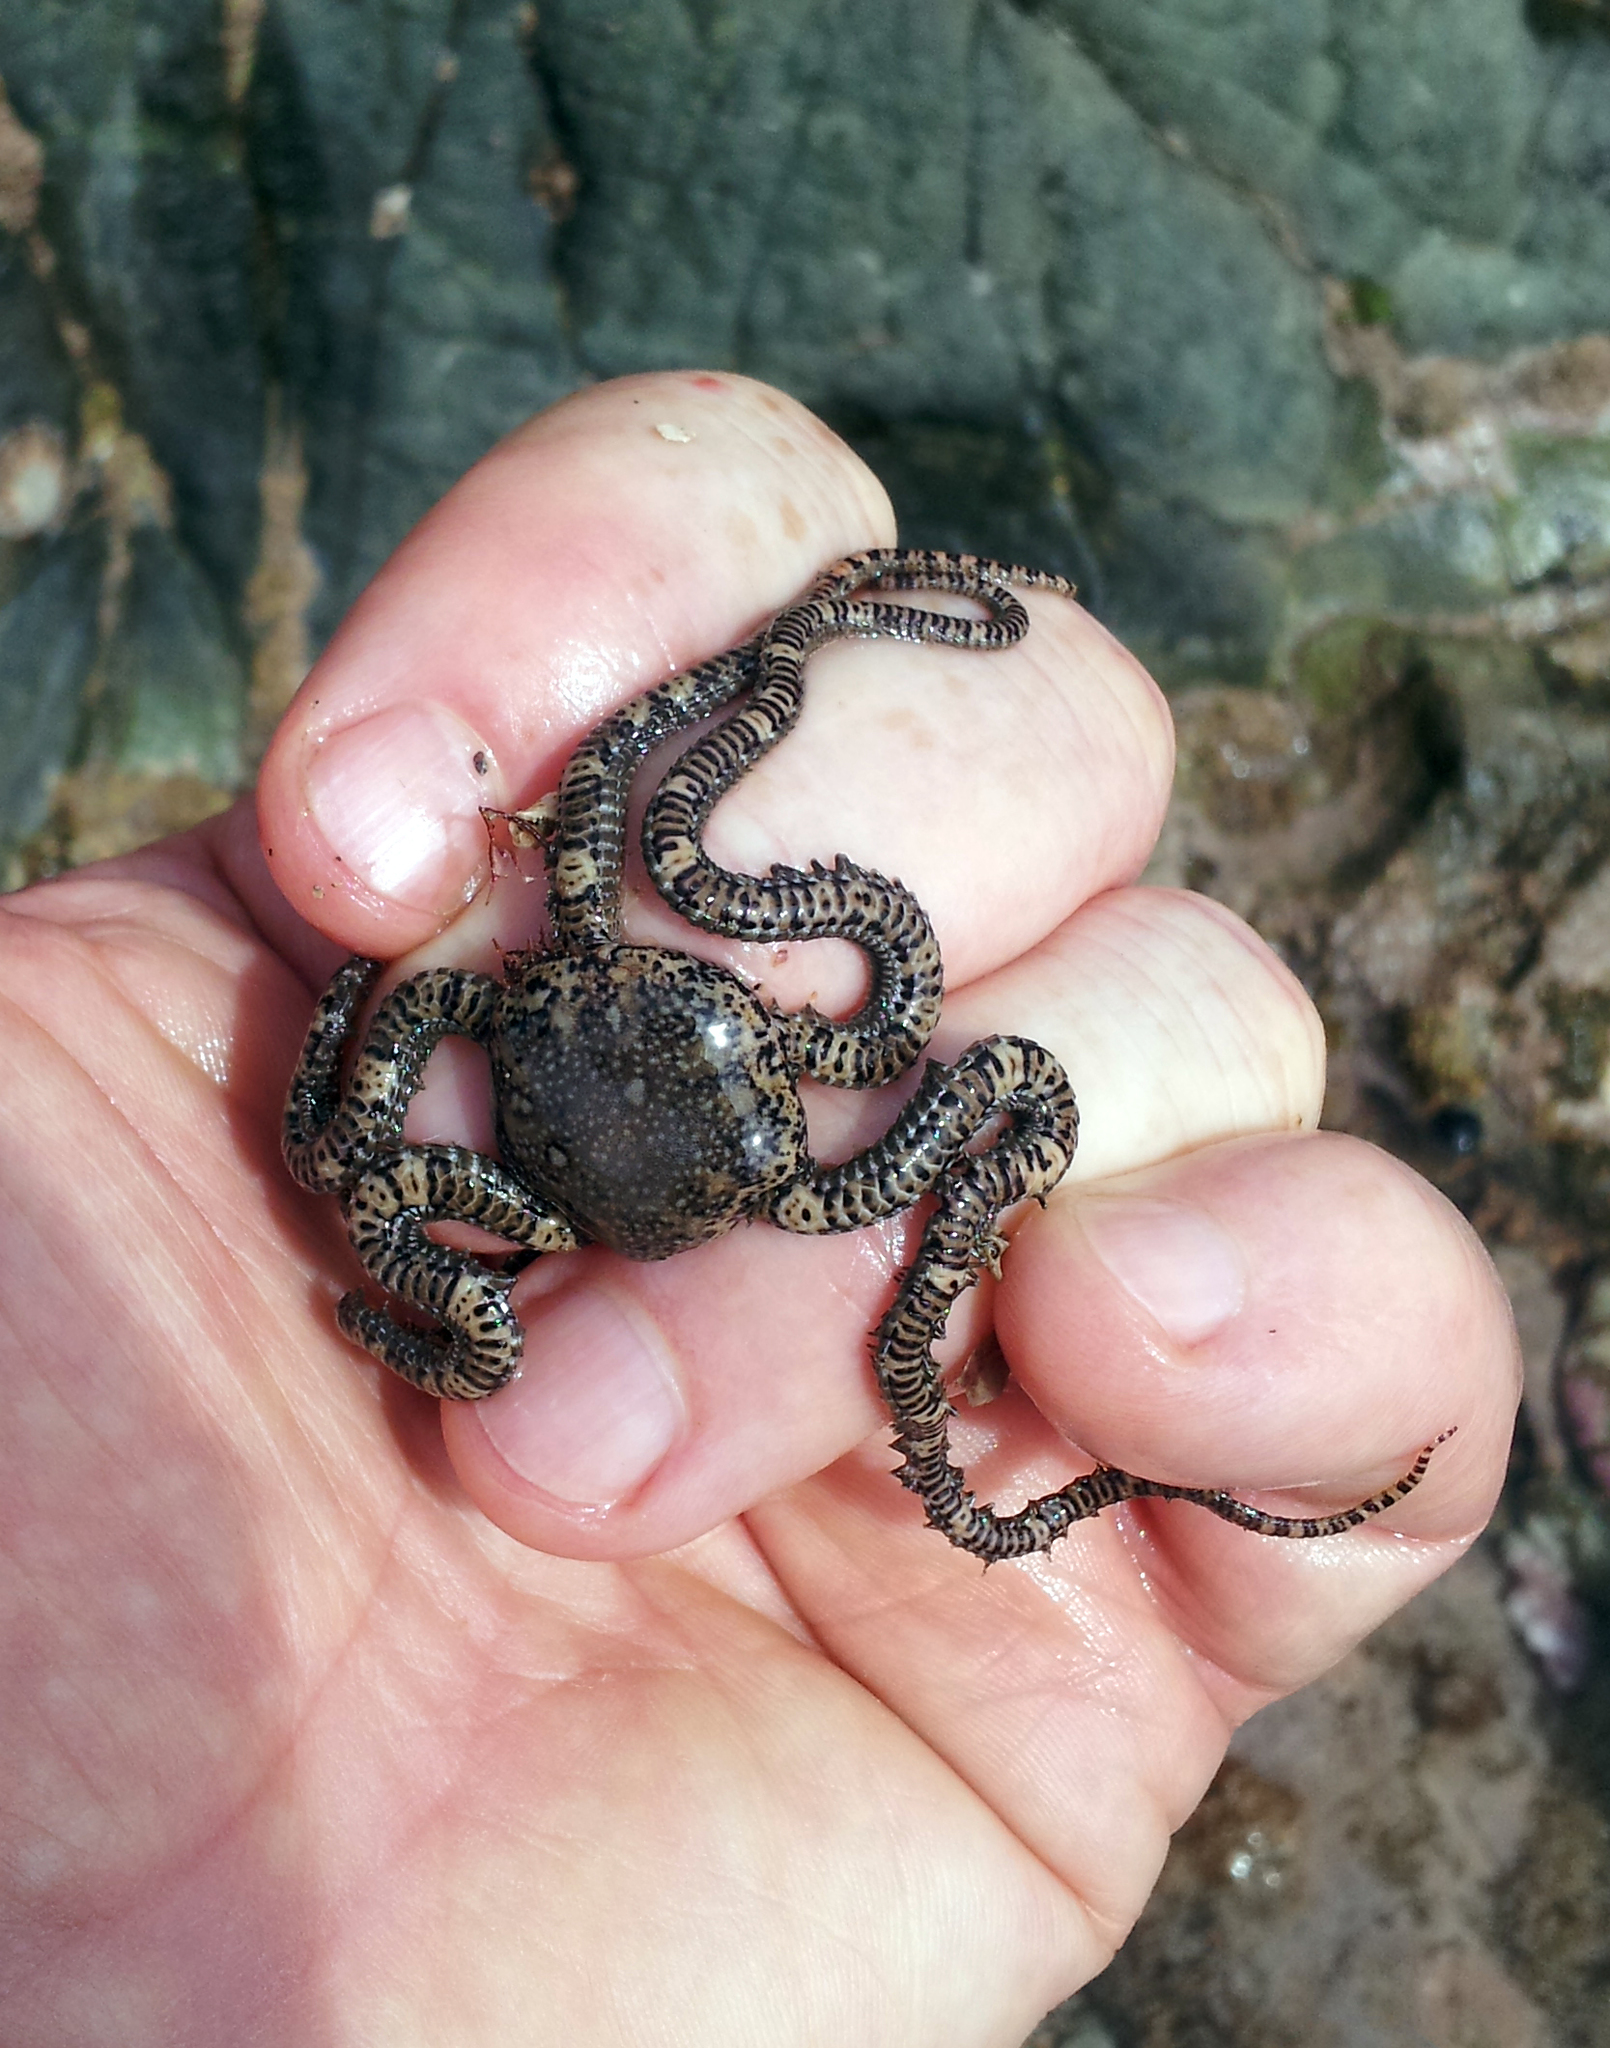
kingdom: Animalia
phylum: Echinodermata
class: Ophiuroidea
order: Amphilepidida
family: Ophionereididae
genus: Ophionereis
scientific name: Ophionereis fasciata
